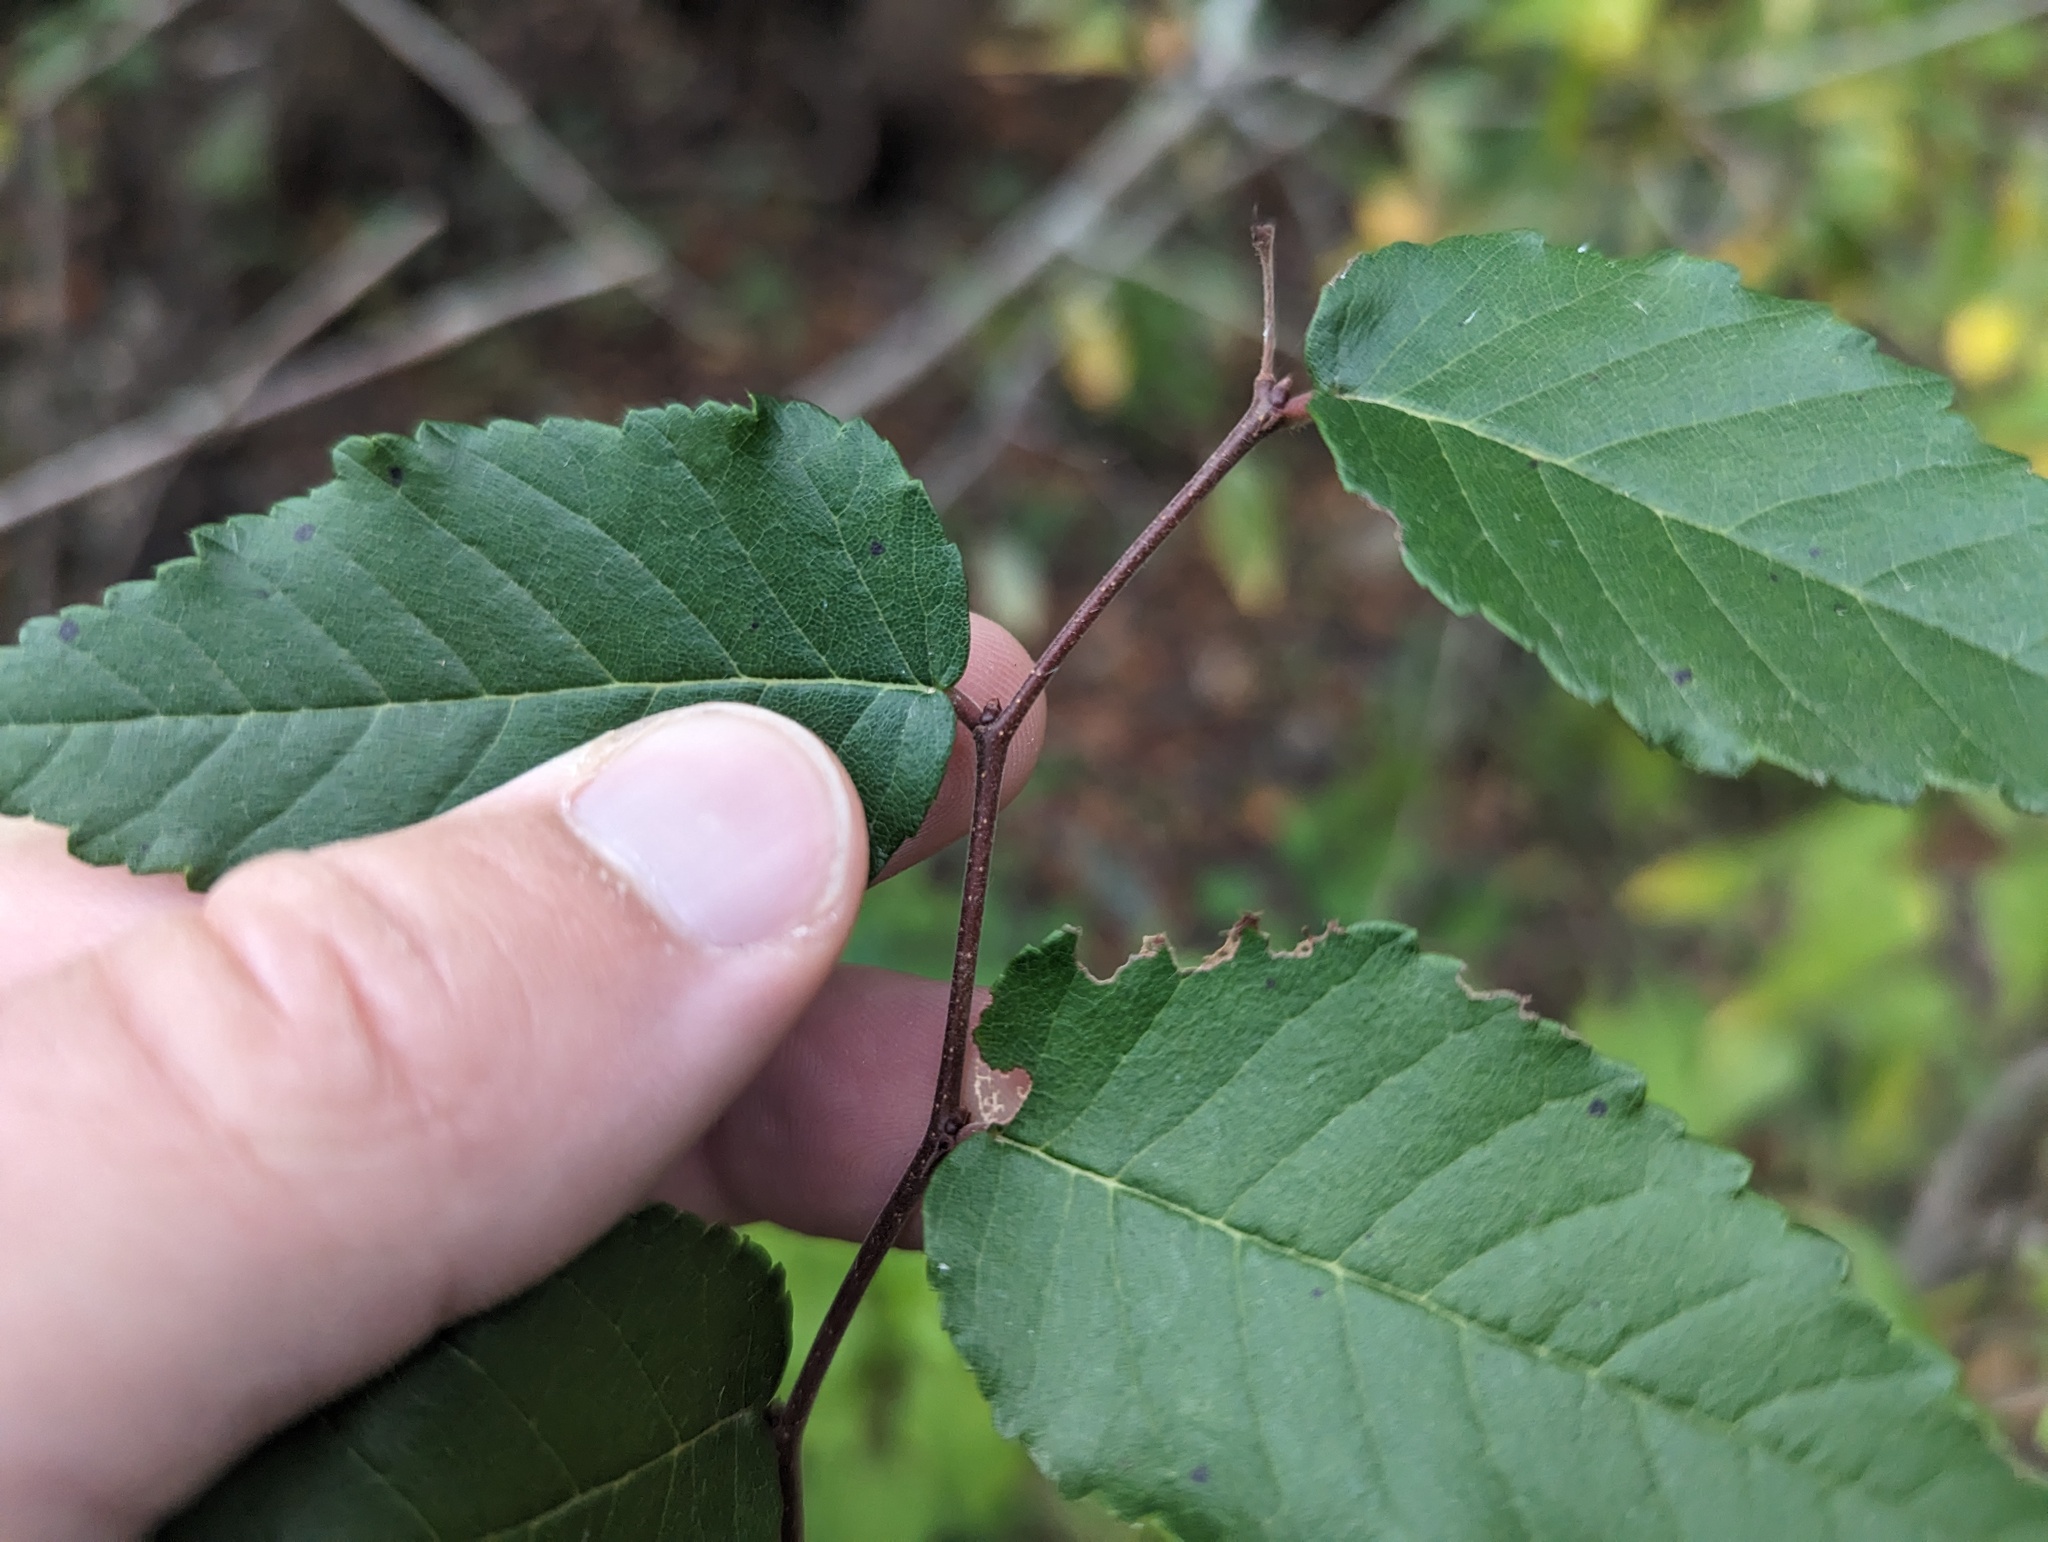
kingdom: Plantae
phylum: Tracheophyta
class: Magnoliopsida
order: Rosales
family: Ulmaceae
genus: Planera
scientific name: Planera aquatica
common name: Water-elm
